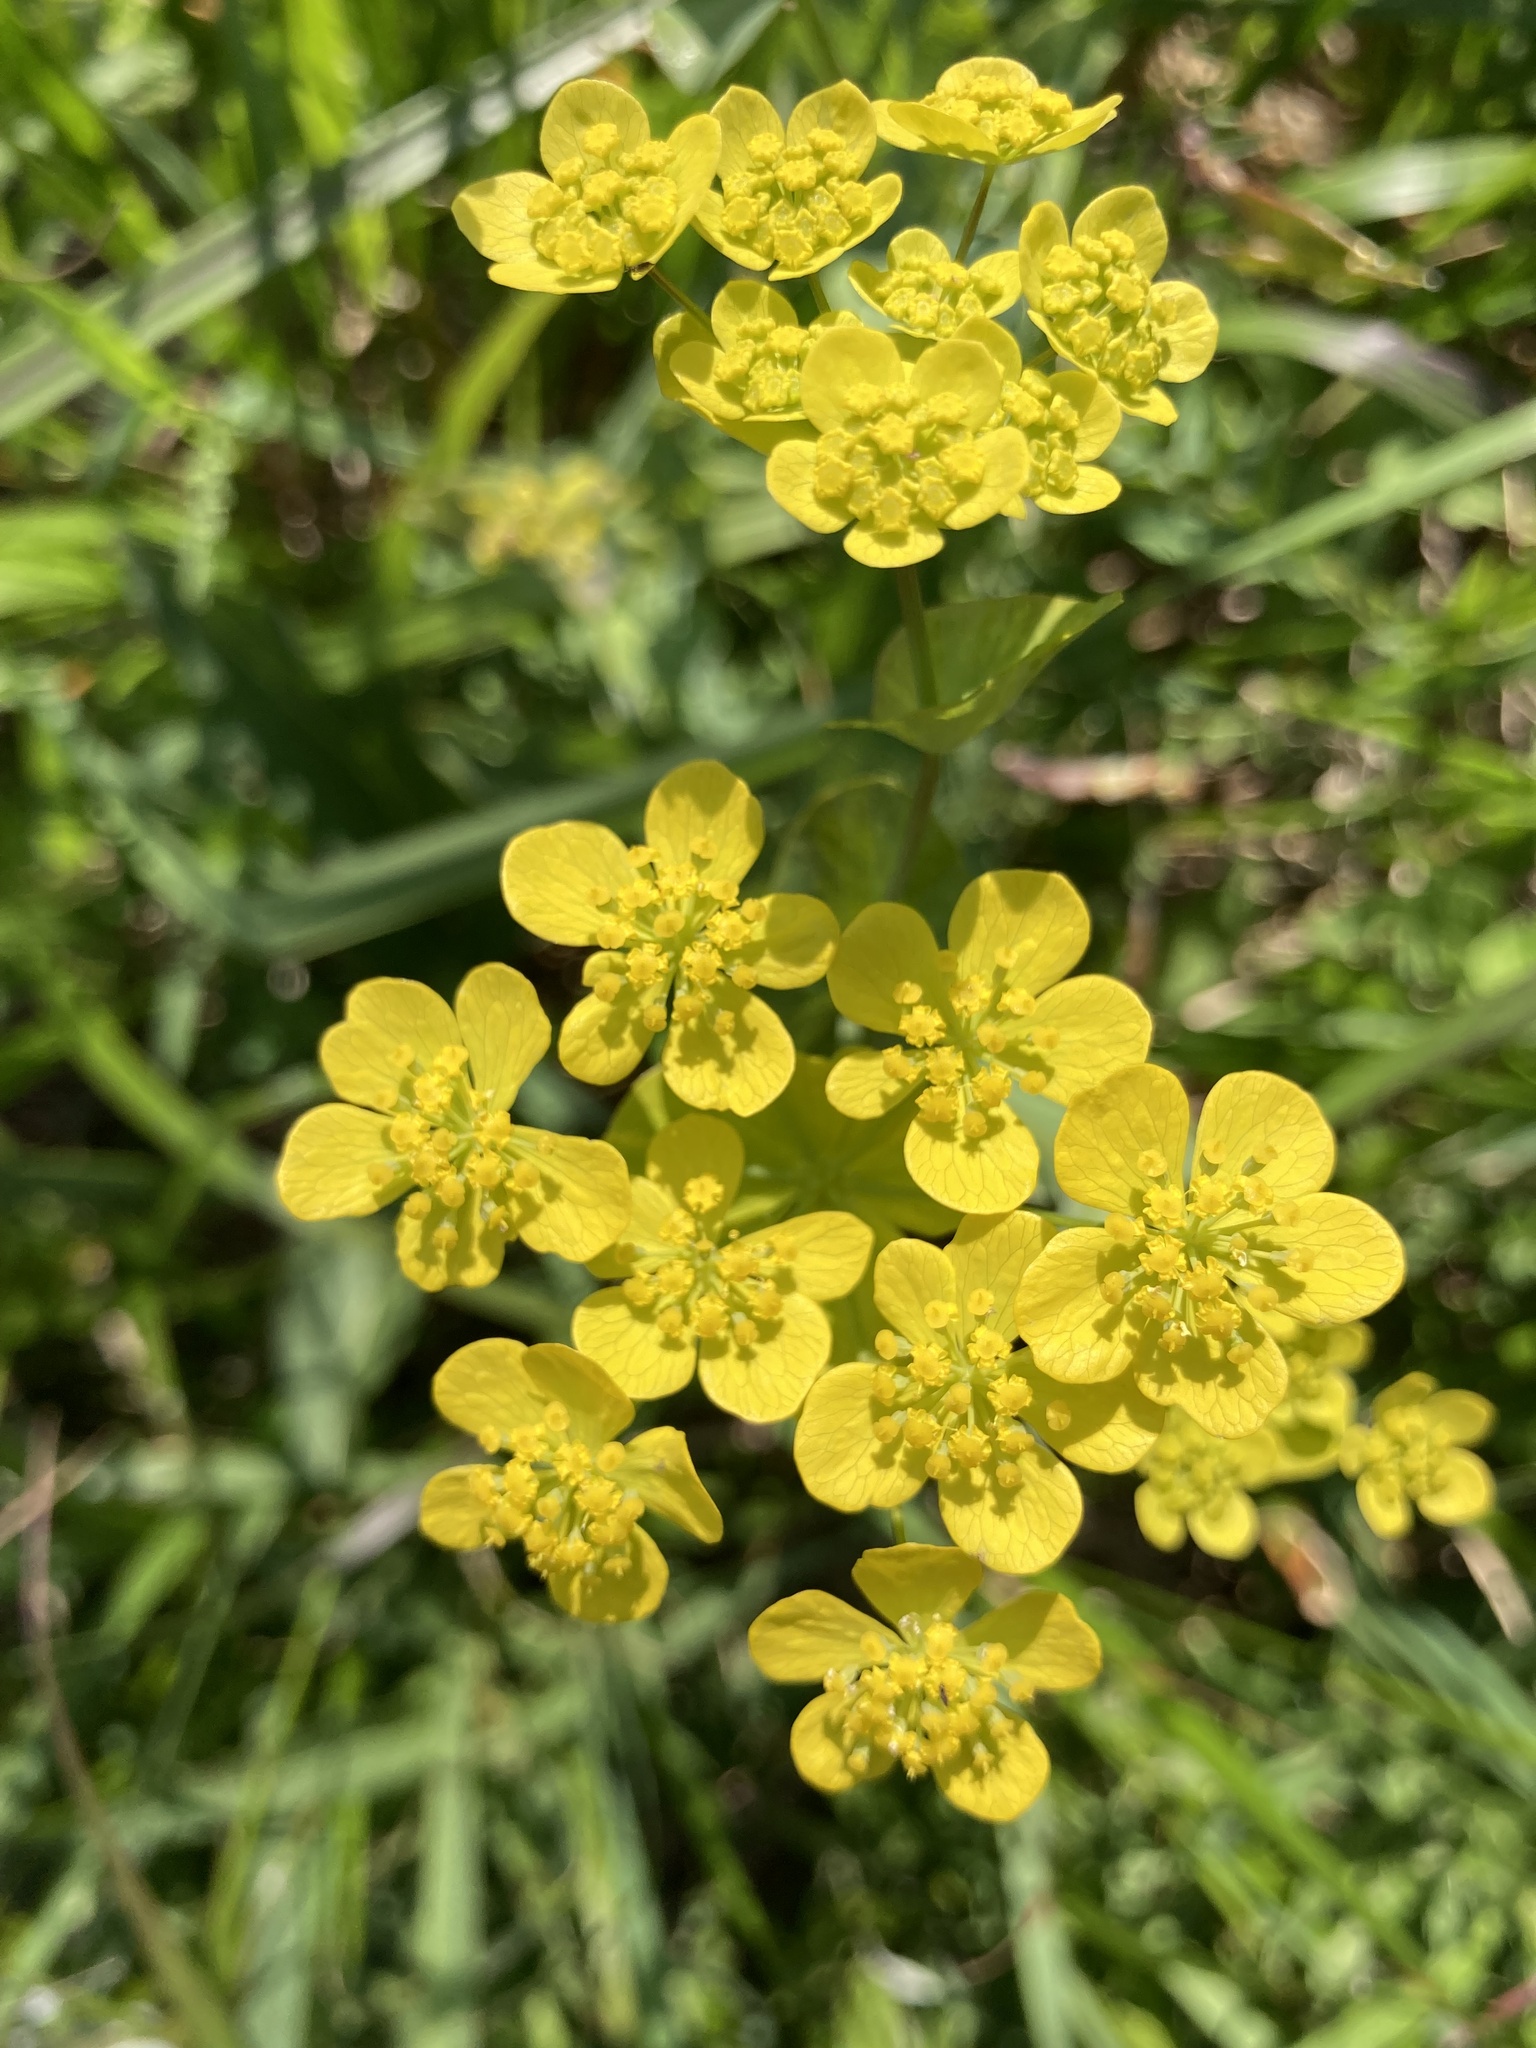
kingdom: Plantae
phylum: Tracheophyta
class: Magnoliopsida
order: Apiales
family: Apiaceae
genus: Bupleurum
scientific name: Bupleurum aureum
